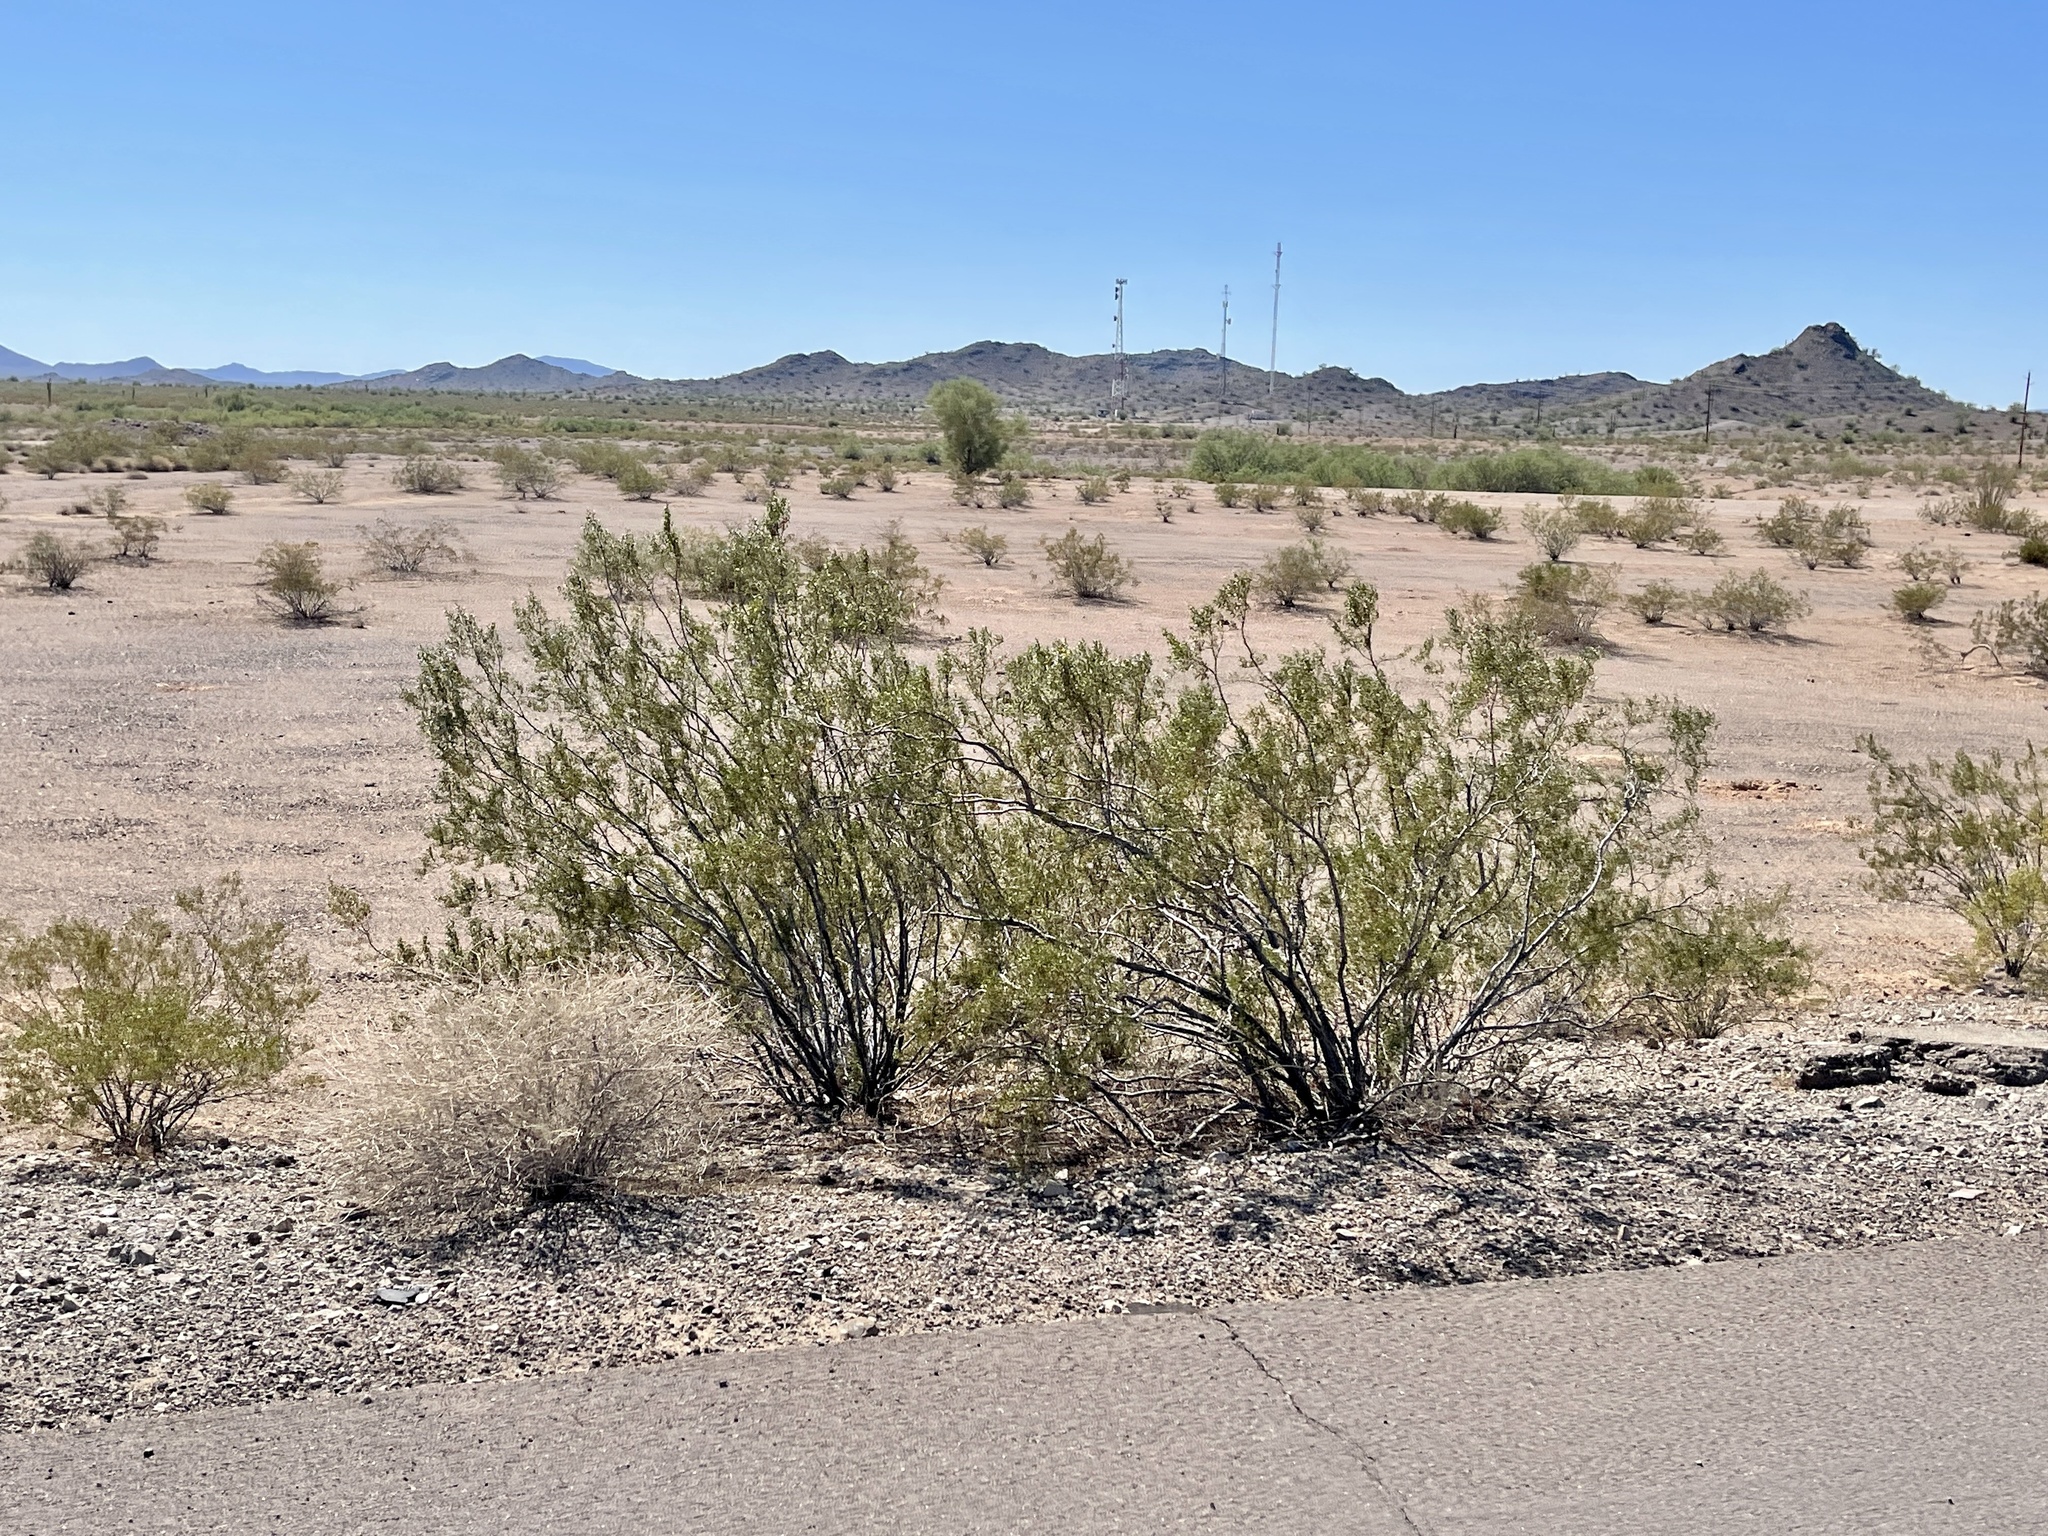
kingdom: Plantae
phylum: Tracheophyta
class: Magnoliopsida
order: Zygophyllales
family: Zygophyllaceae
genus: Larrea
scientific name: Larrea tridentata
